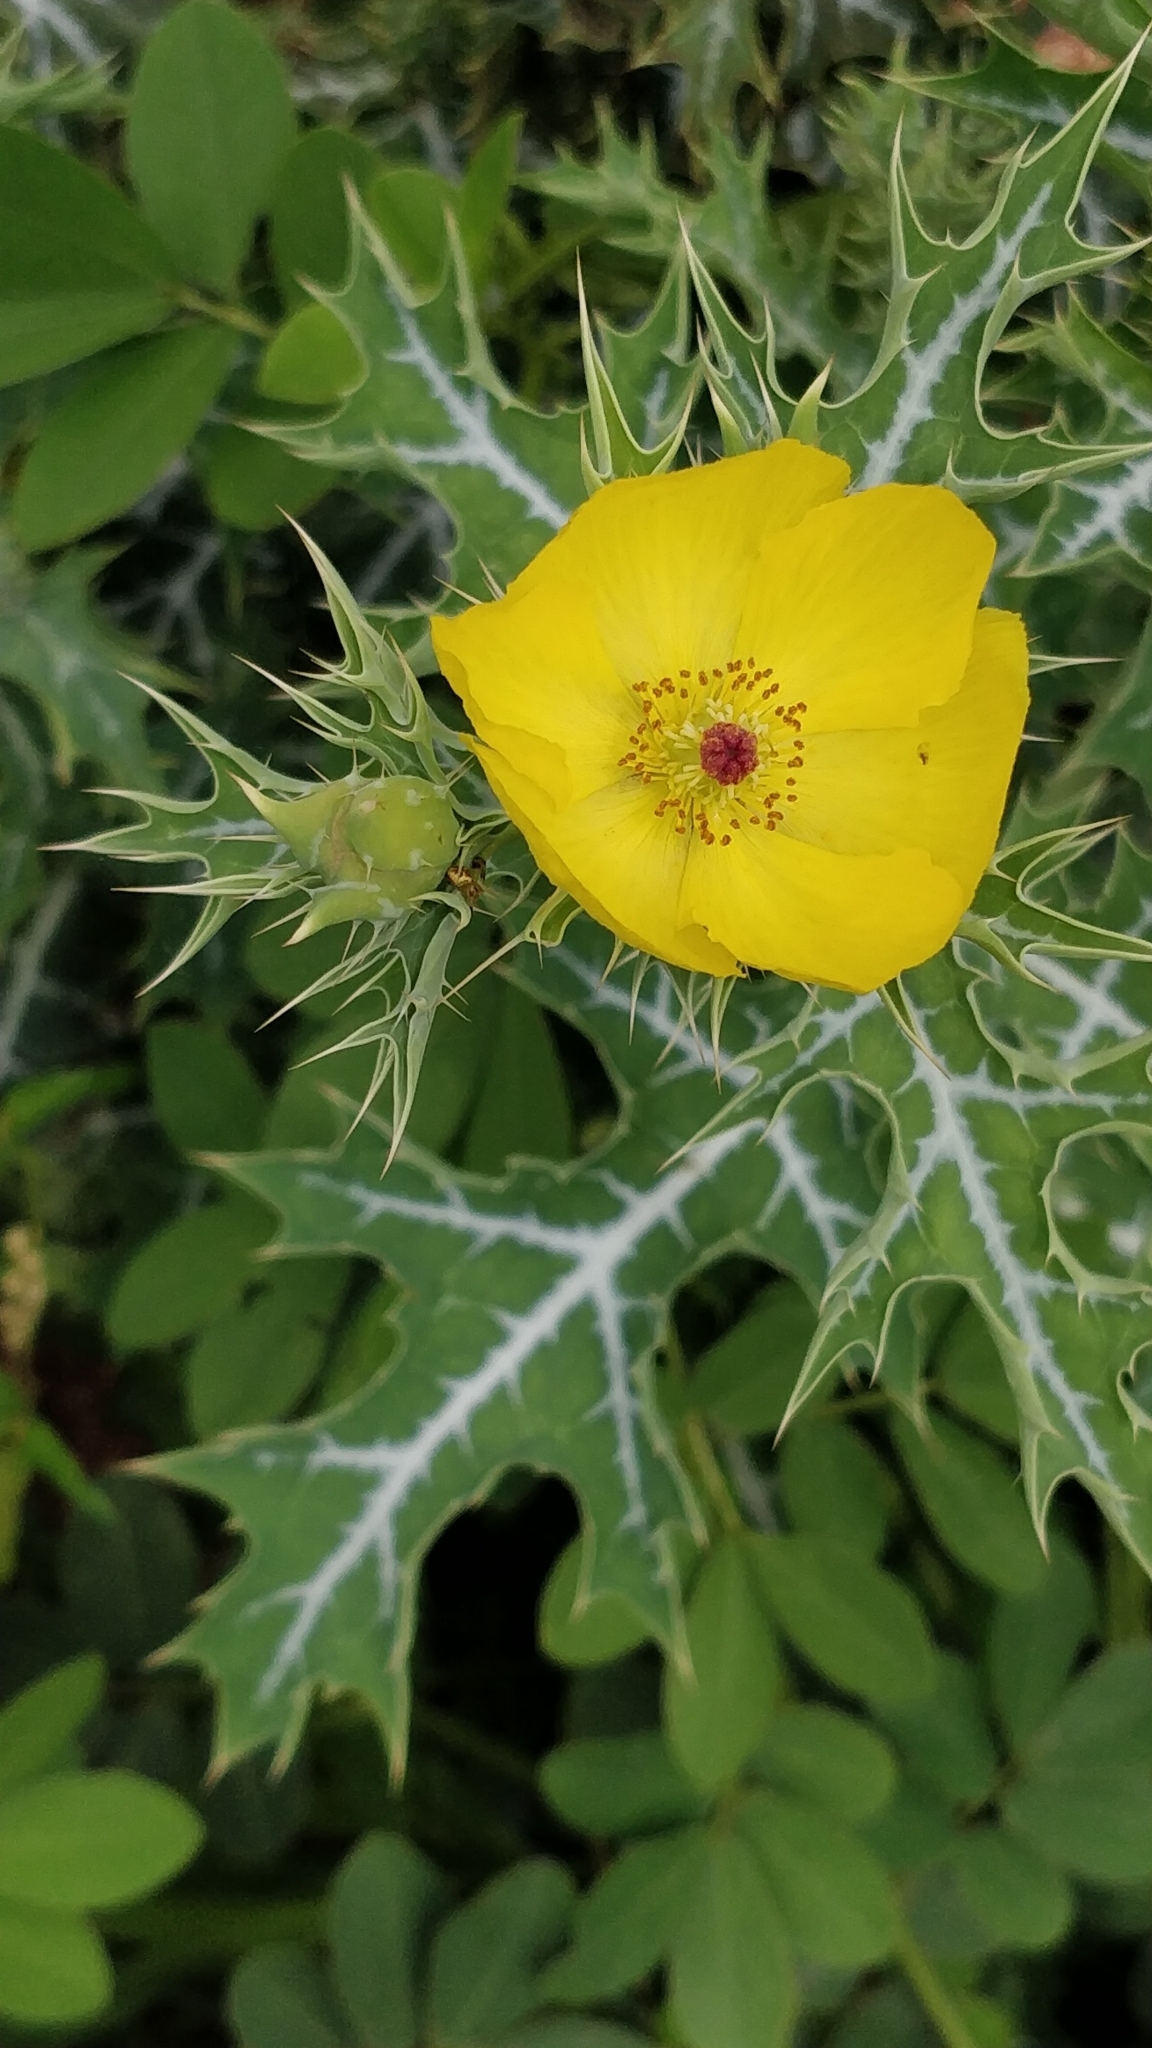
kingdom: Plantae
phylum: Tracheophyta
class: Magnoliopsida
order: Ranunculales
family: Papaveraceae
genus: Argemone
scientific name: Argemone mexicana
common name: Mexican poppy
